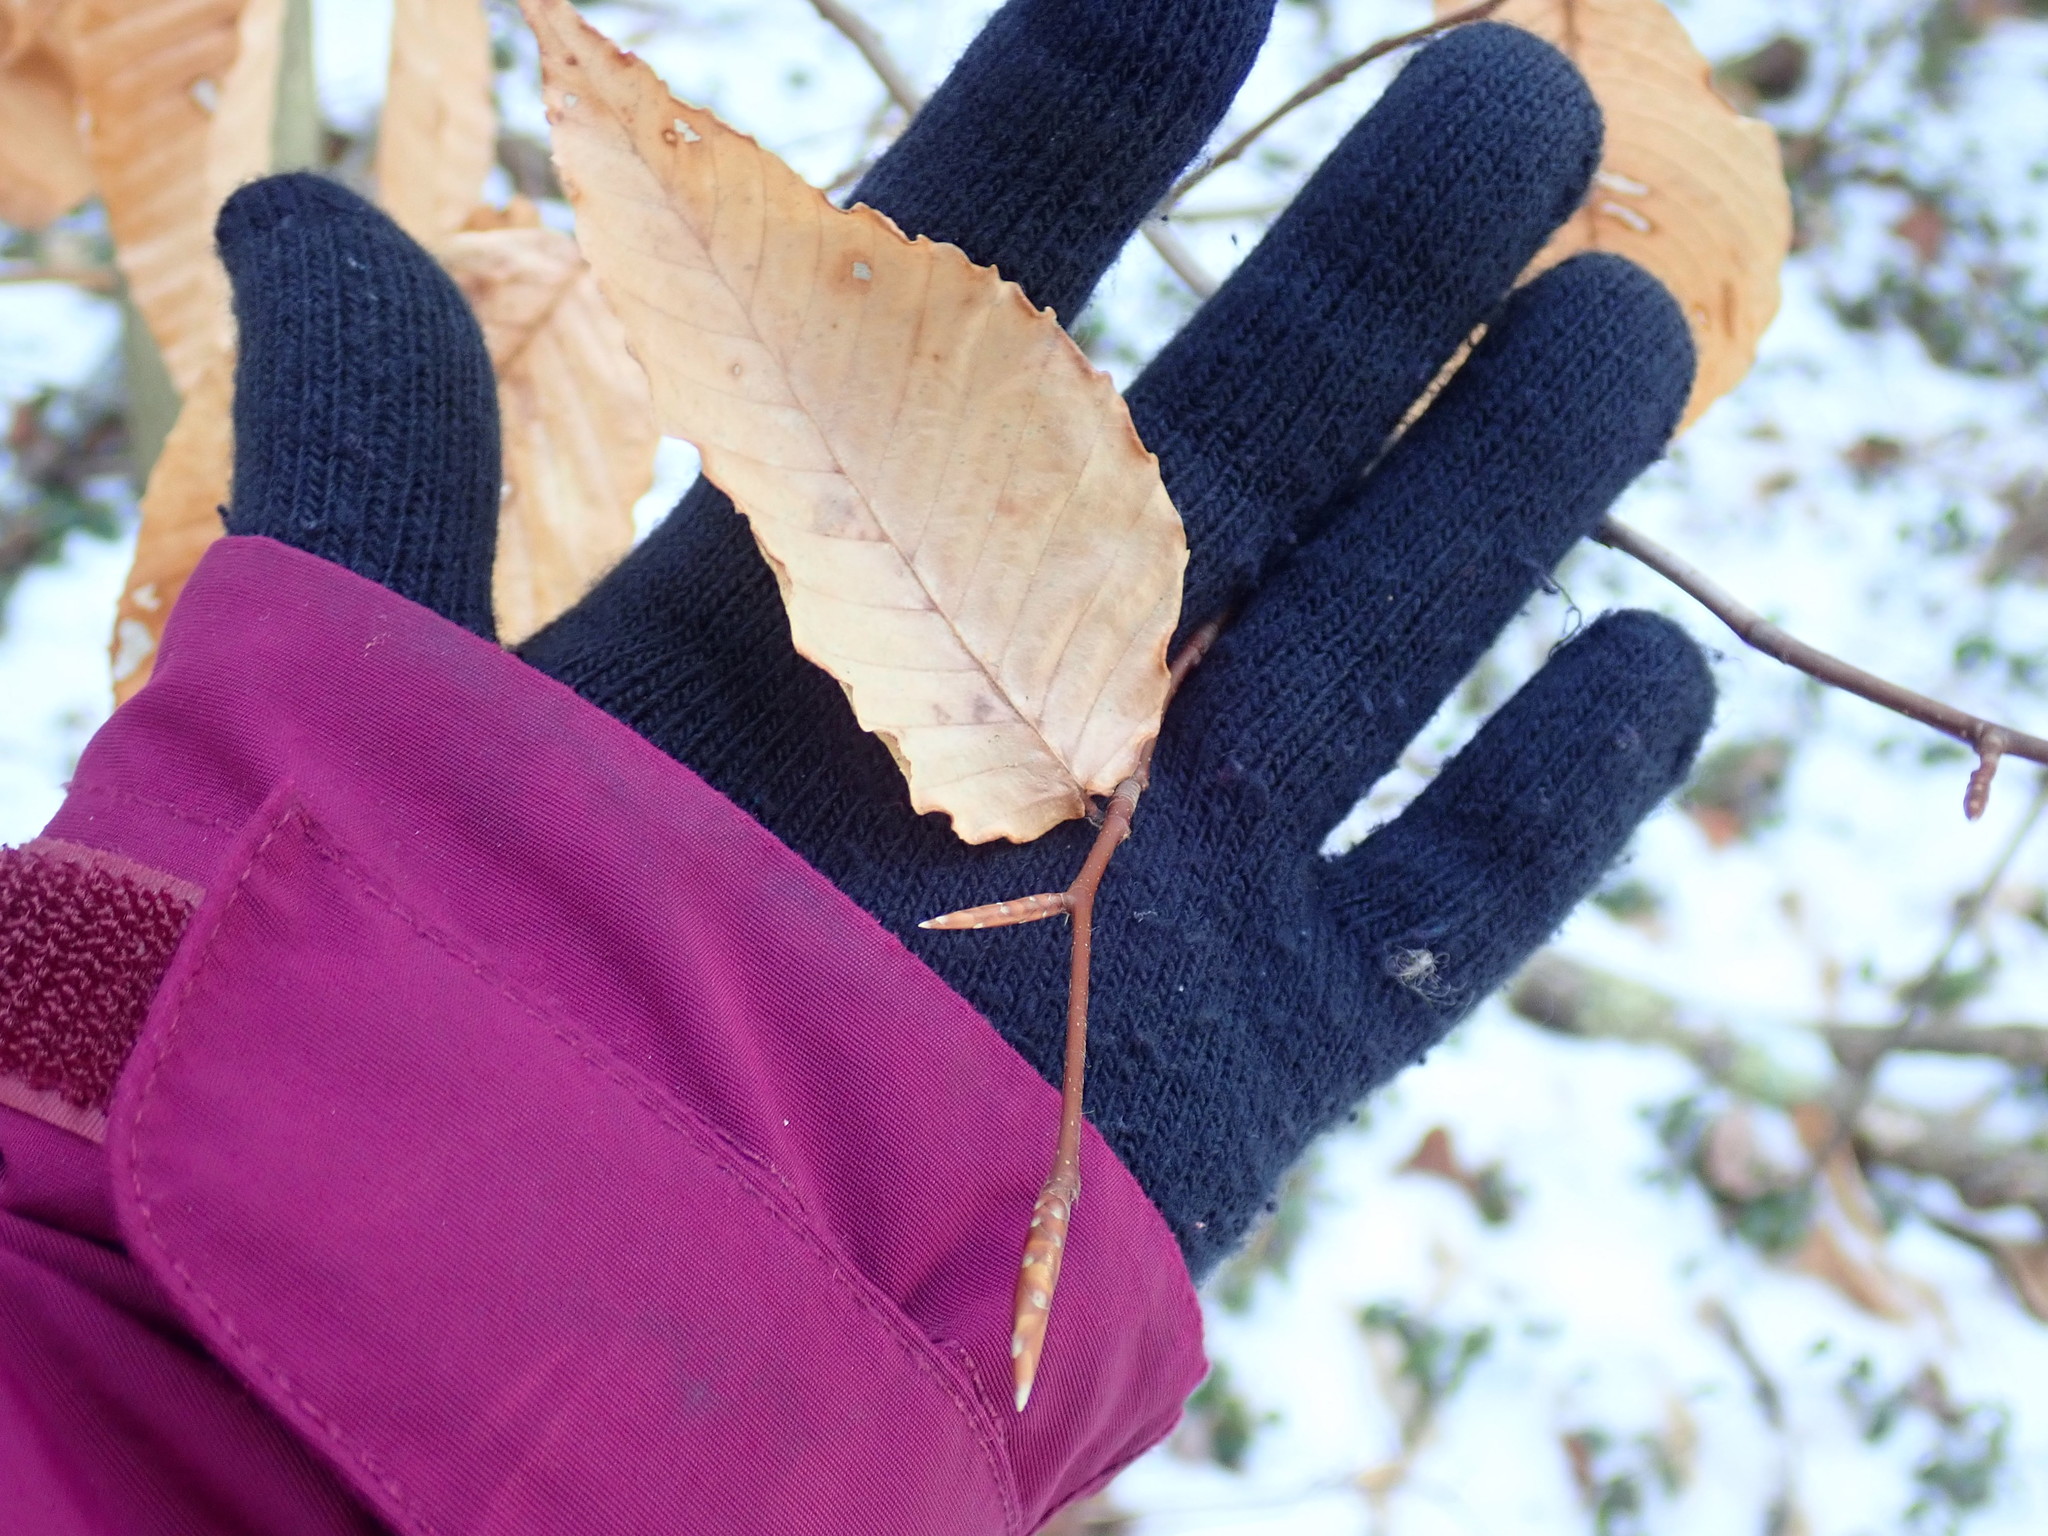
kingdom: Plantae
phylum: Tracheophyta
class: Magnoliopsida
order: Fagales
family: Fagaceae
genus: Fagus
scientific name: Fagus grandifolia
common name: American beech
